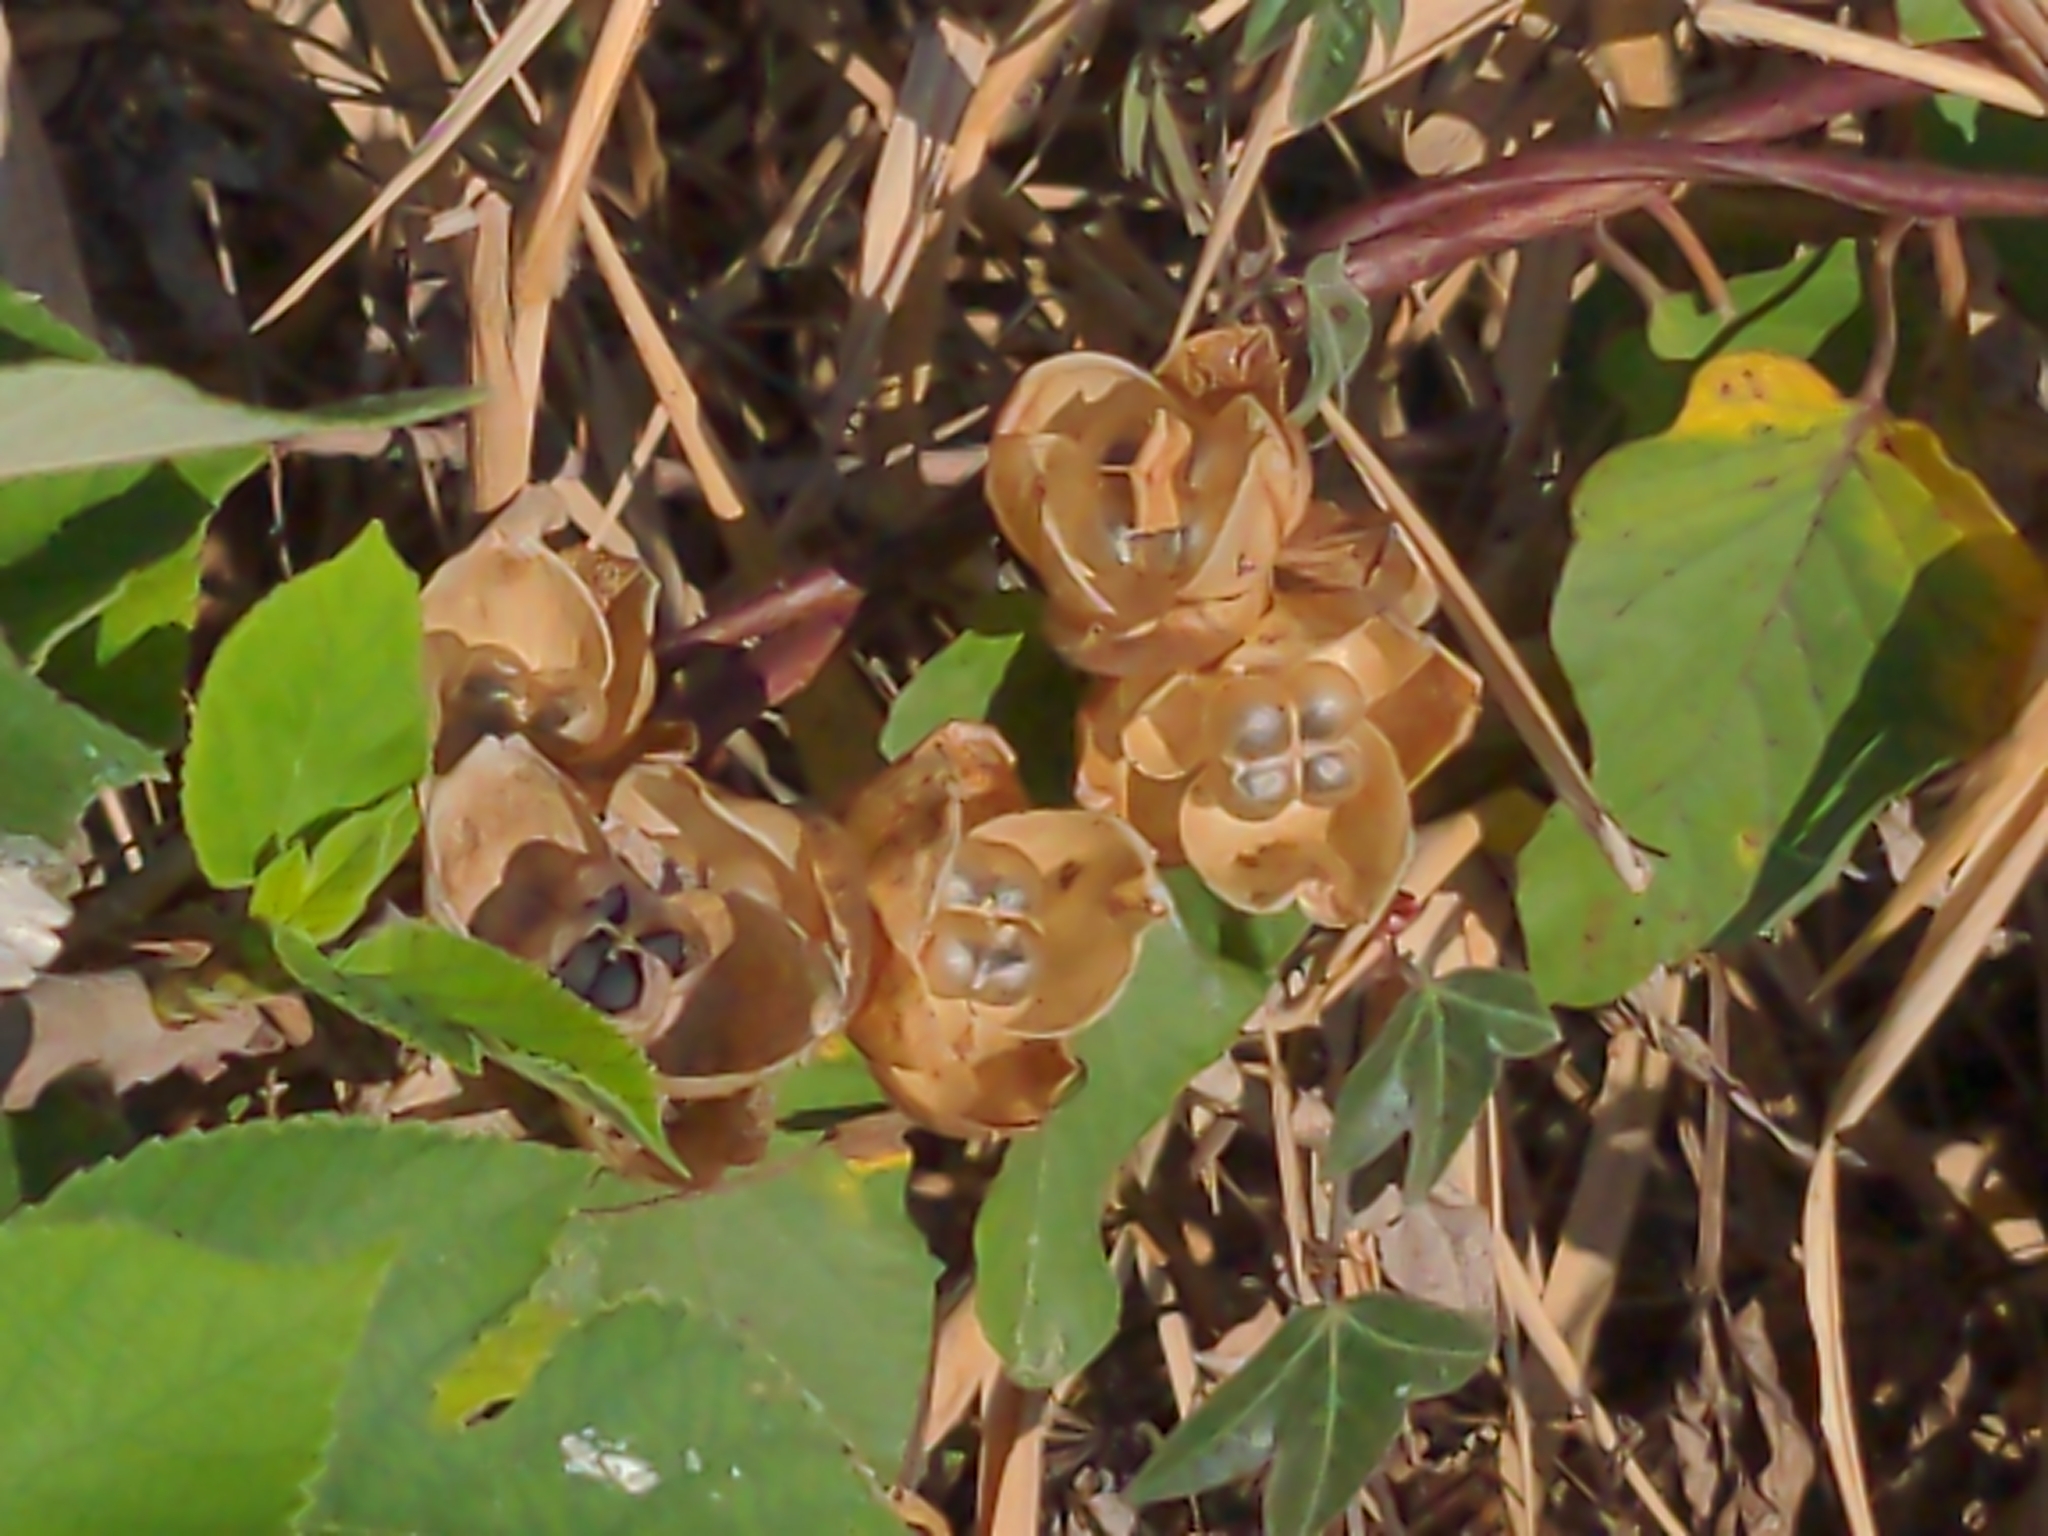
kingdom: Plantae
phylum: Tracheophyta
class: Magnoliopsida
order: Solanales
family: Convolvulaceae
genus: Operculina
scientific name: Operculina turpethum
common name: Transparent wood-rose
